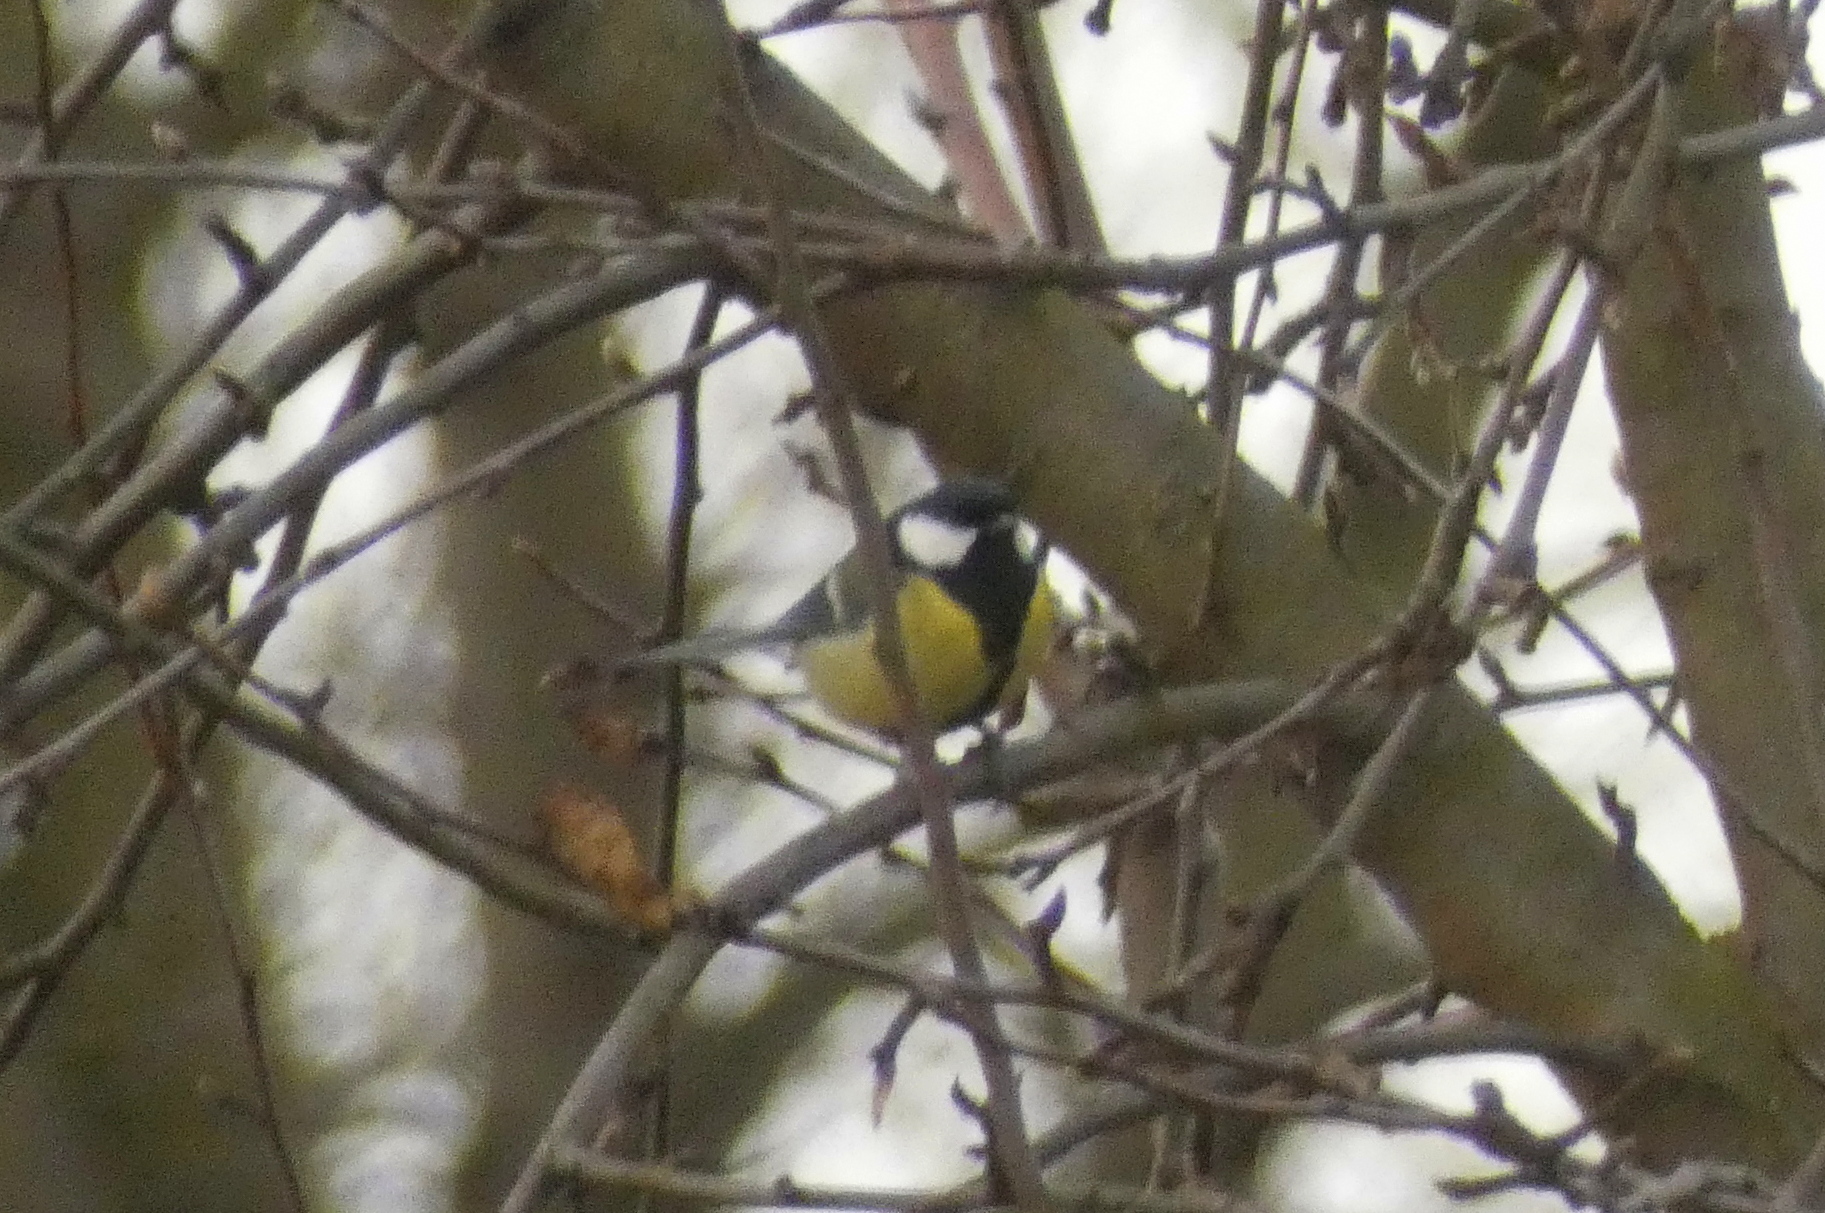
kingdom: Animalia
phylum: Chordata
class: Aves
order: Passeriformes
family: Paridae
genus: Parus
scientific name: Parus major
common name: Great tit
